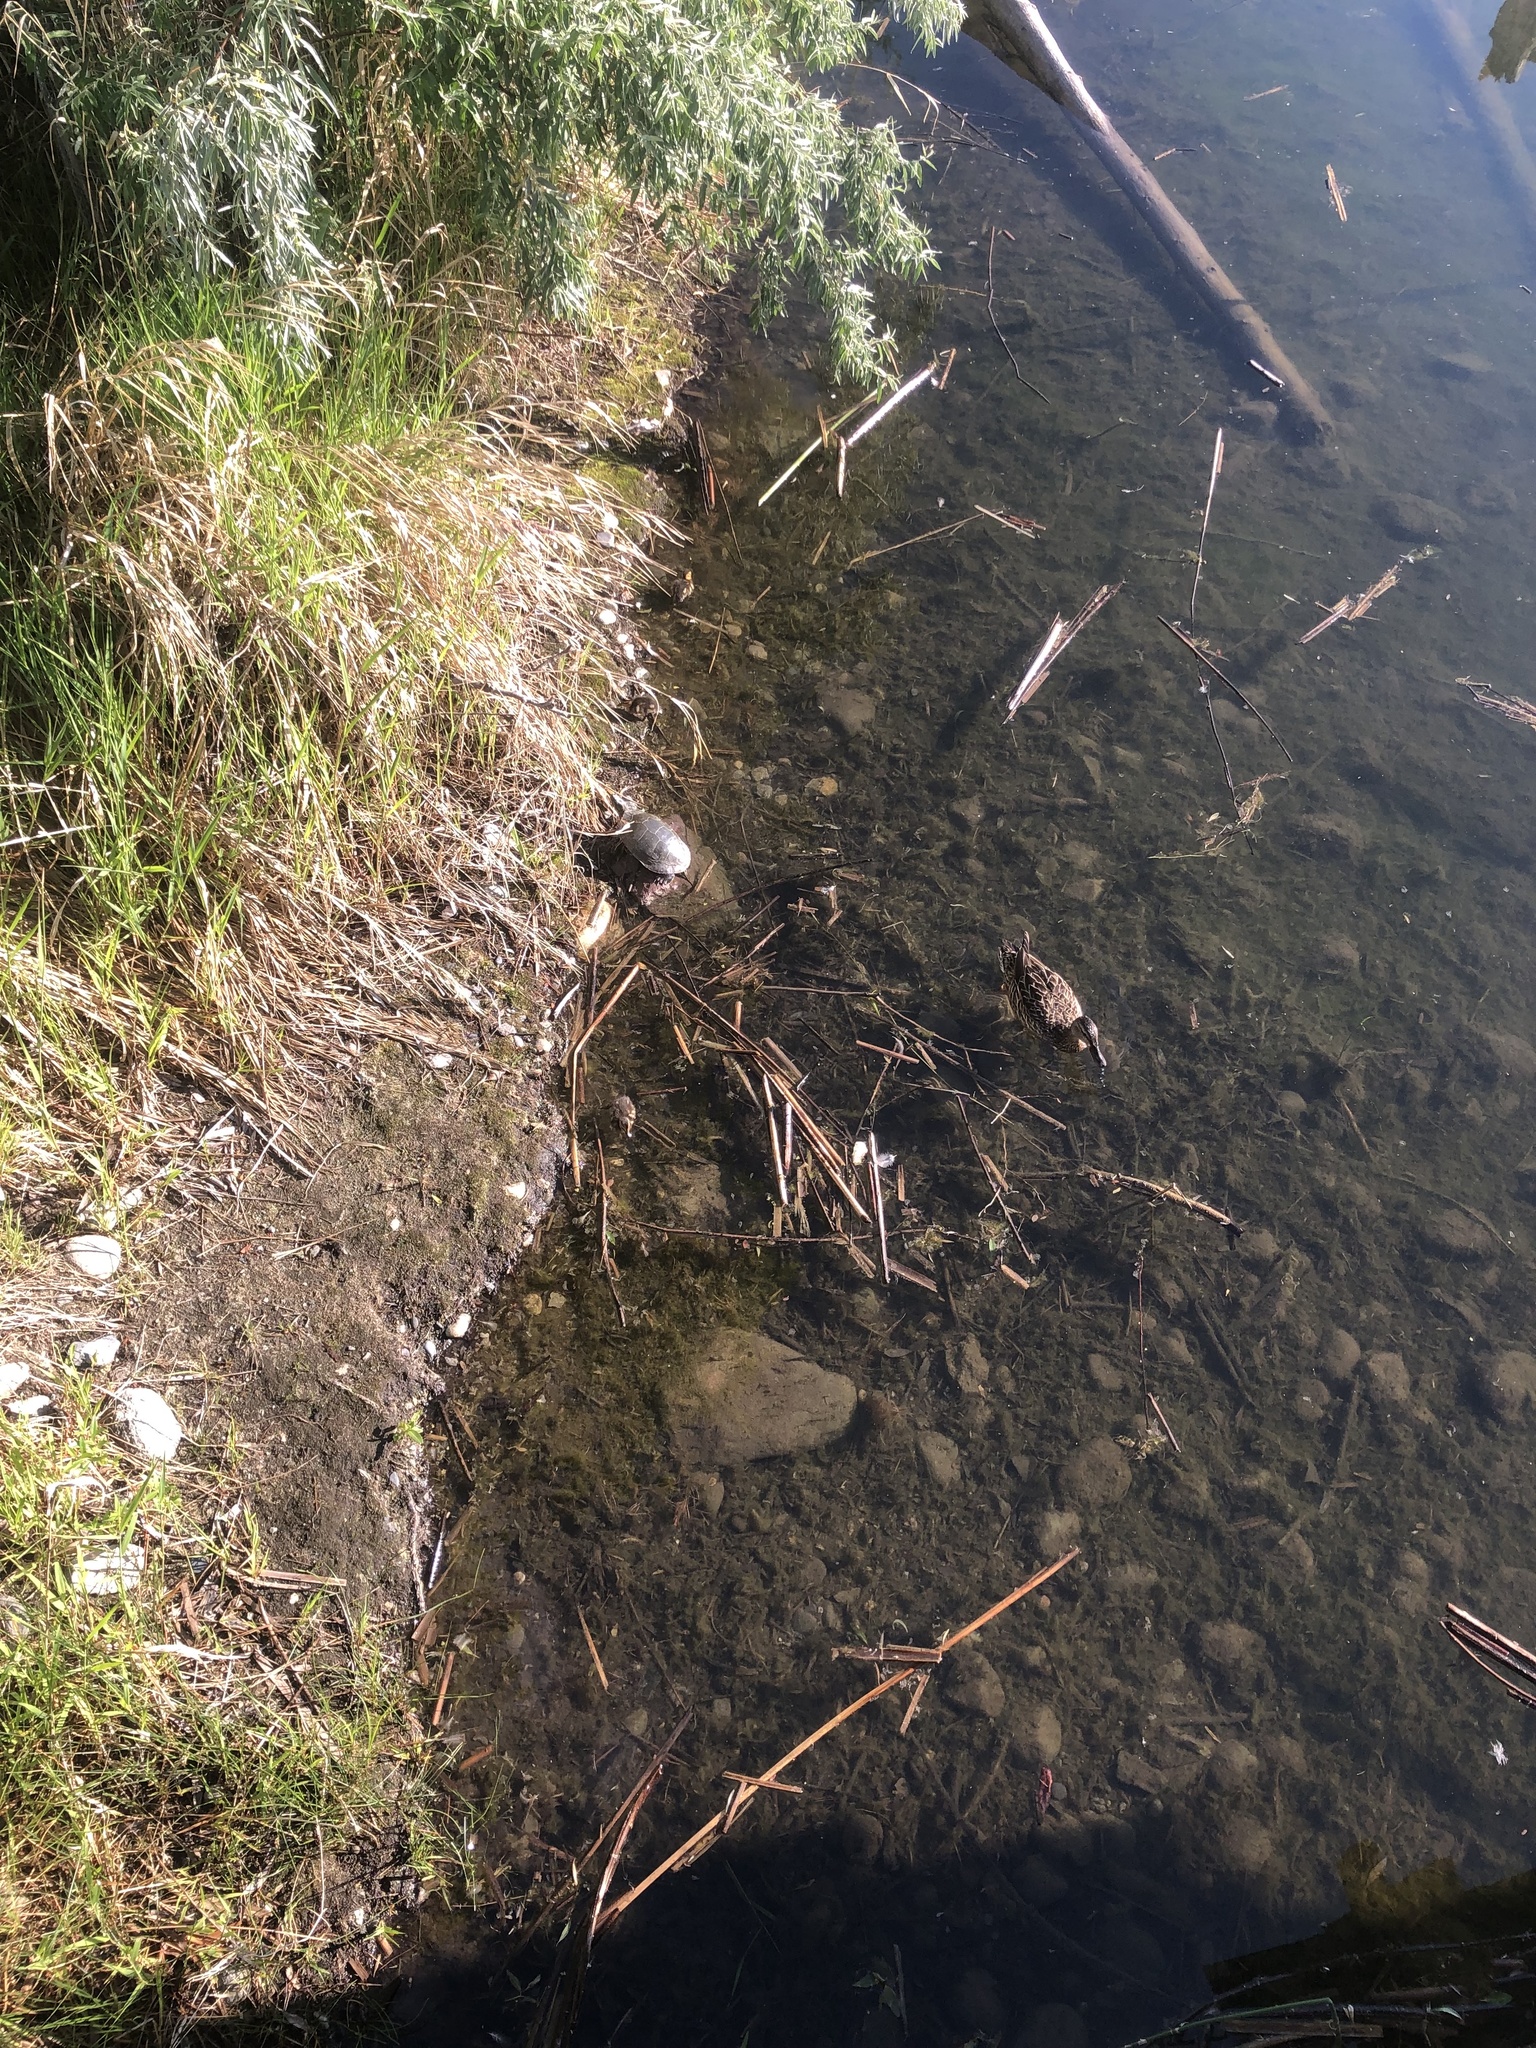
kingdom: Animalia
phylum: Chordata
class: Aves
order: Anseriformes
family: Anatidae
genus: Anas
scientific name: Anas platyrhynchos
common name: Mallard
